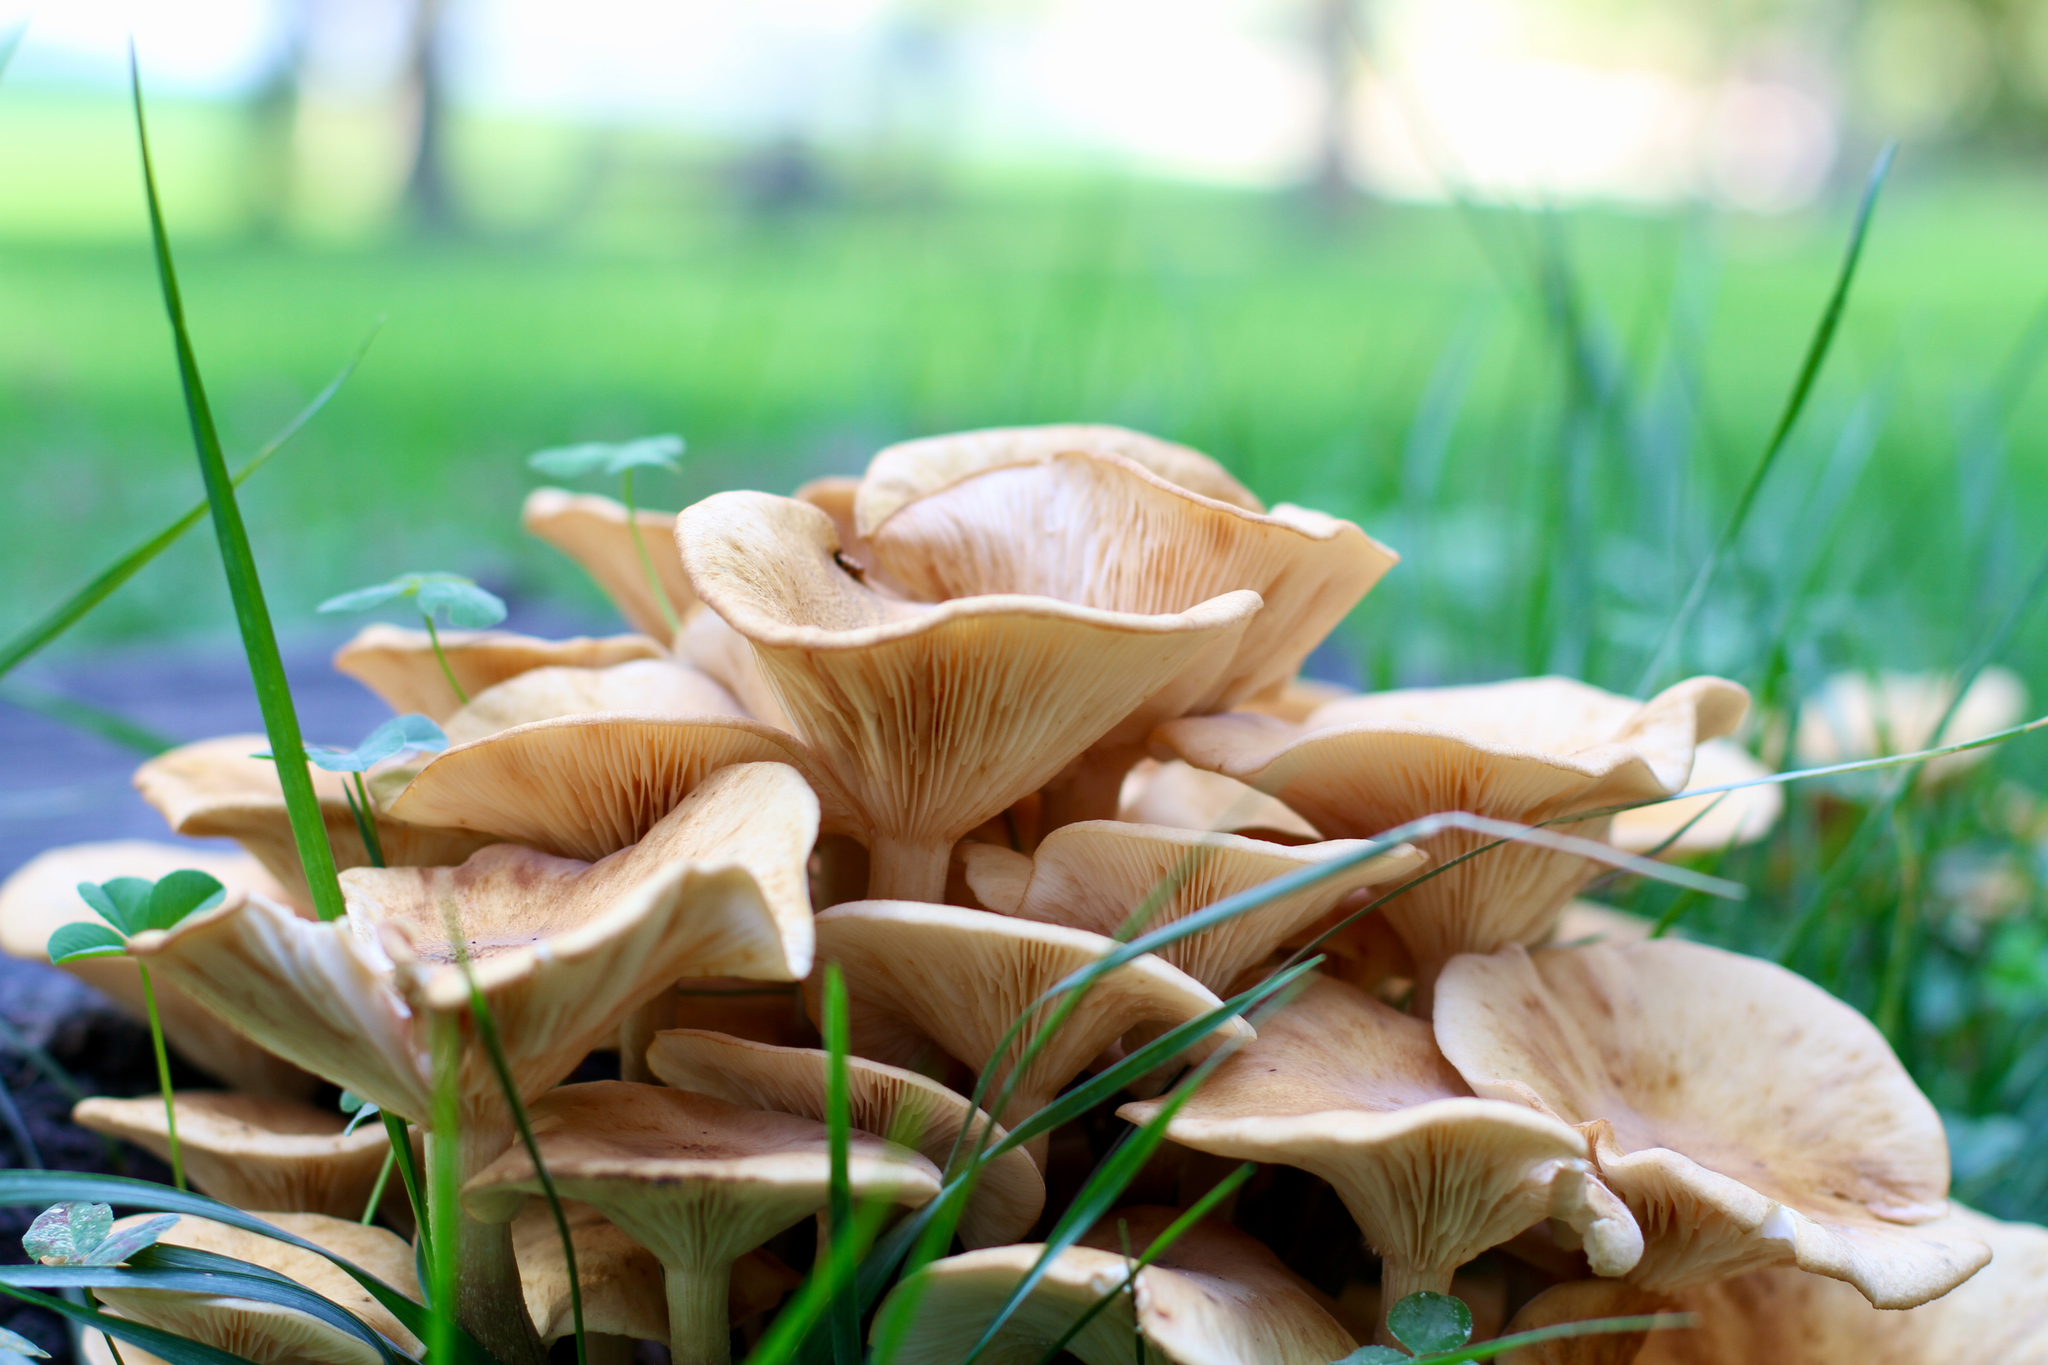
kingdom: Fungi
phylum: Basidiomycota
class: Agaricomycetes
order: Agaricales
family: Physalacriaceae
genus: Desarmillaria
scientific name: Desarmillaria caespitosa
